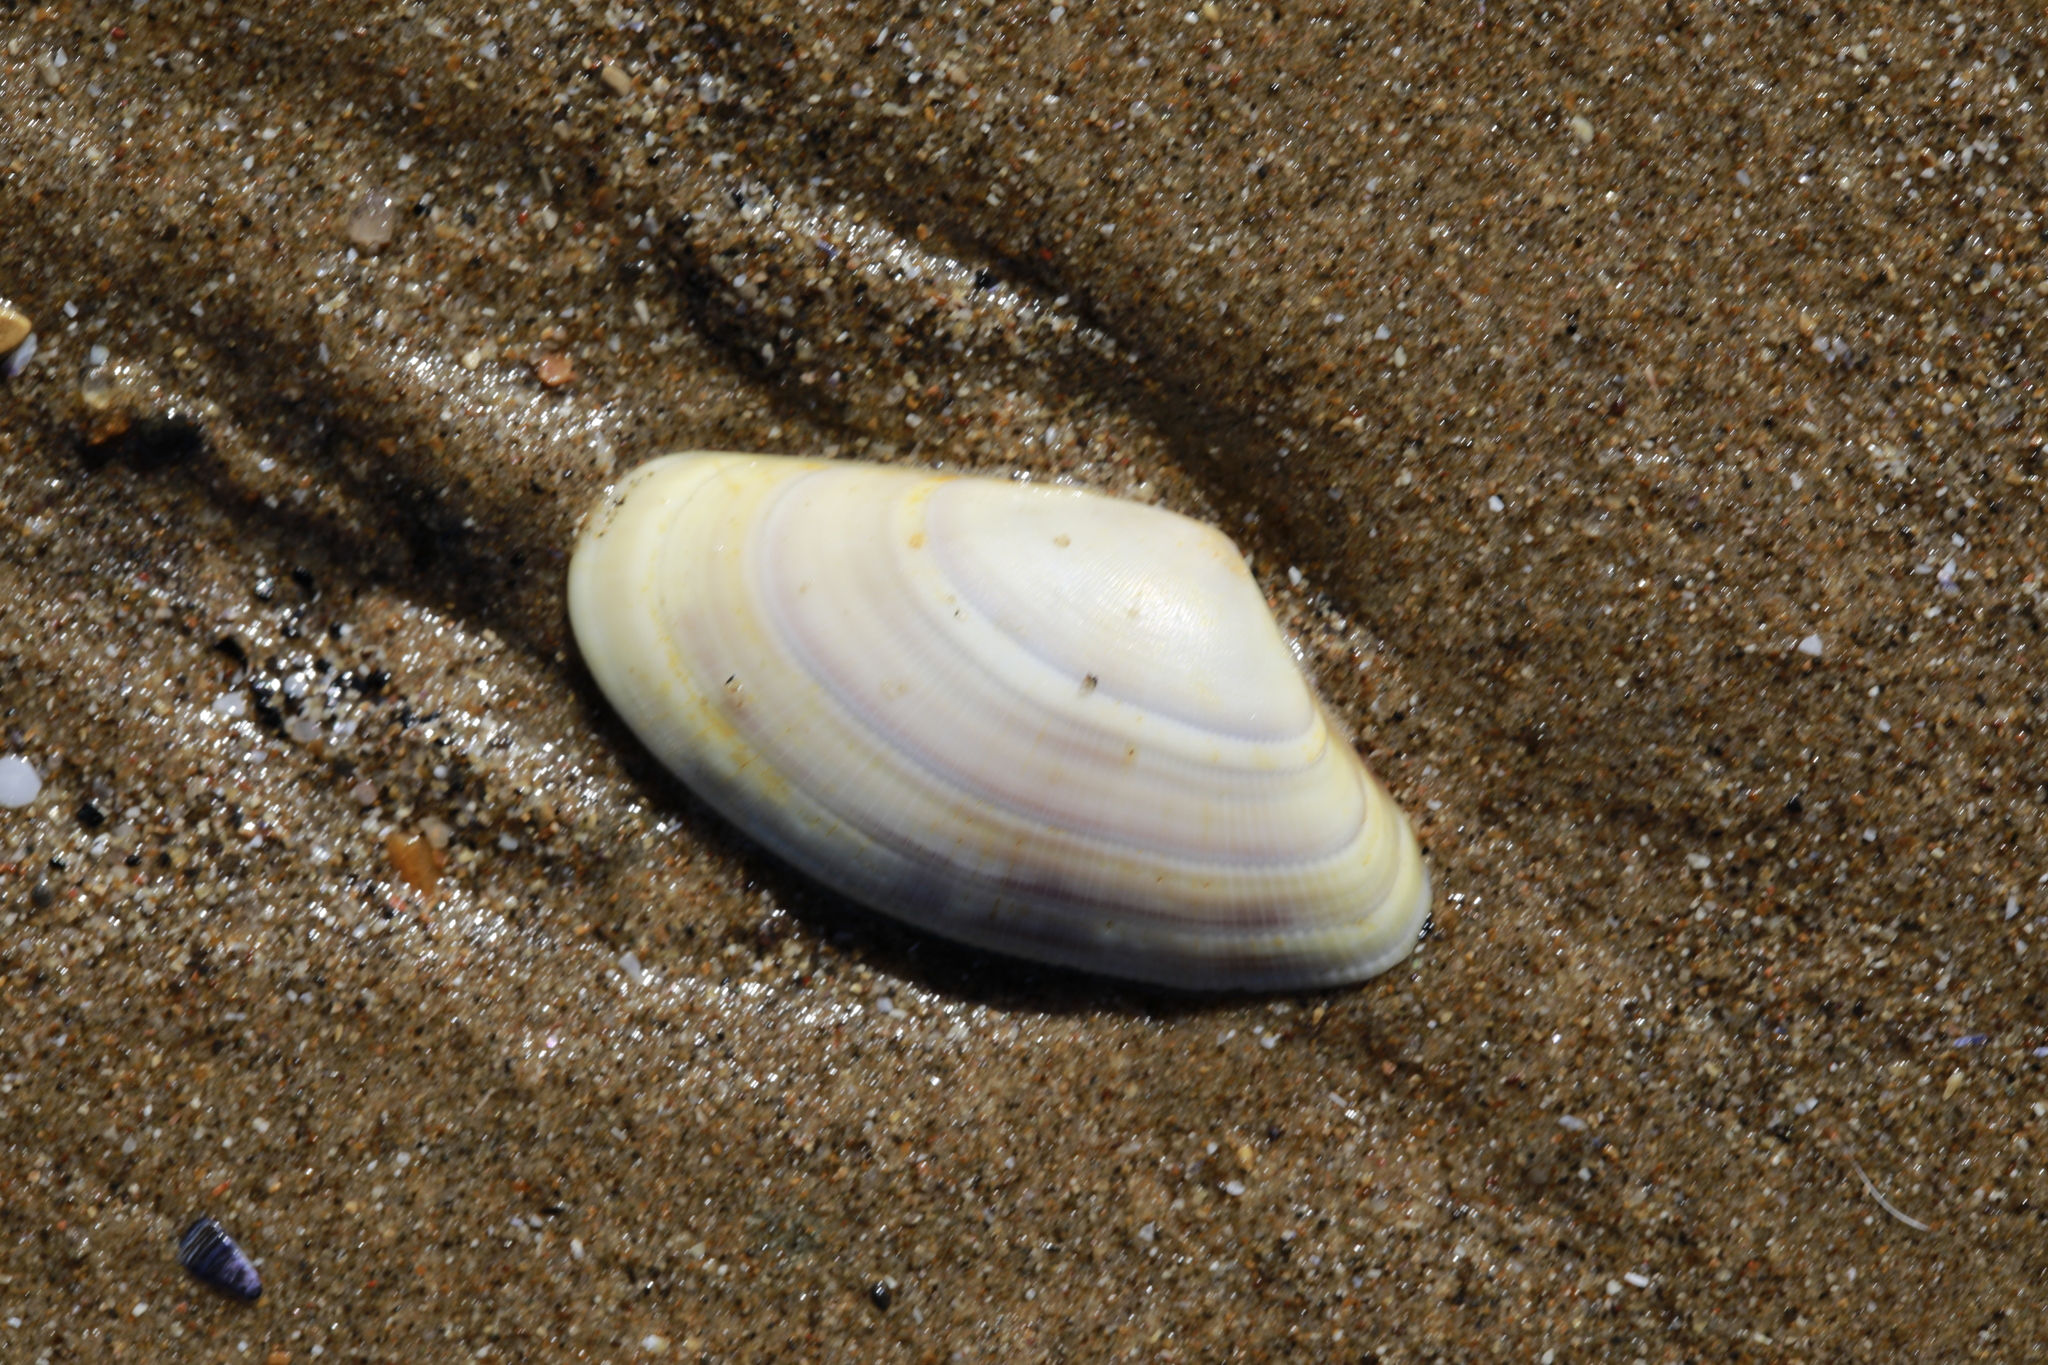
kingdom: Animalia
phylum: Mollusca
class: Bivalvia
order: Cardiida
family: Donacidae
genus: Donax
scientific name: Donax vittatus
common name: Banded wedge-shell
